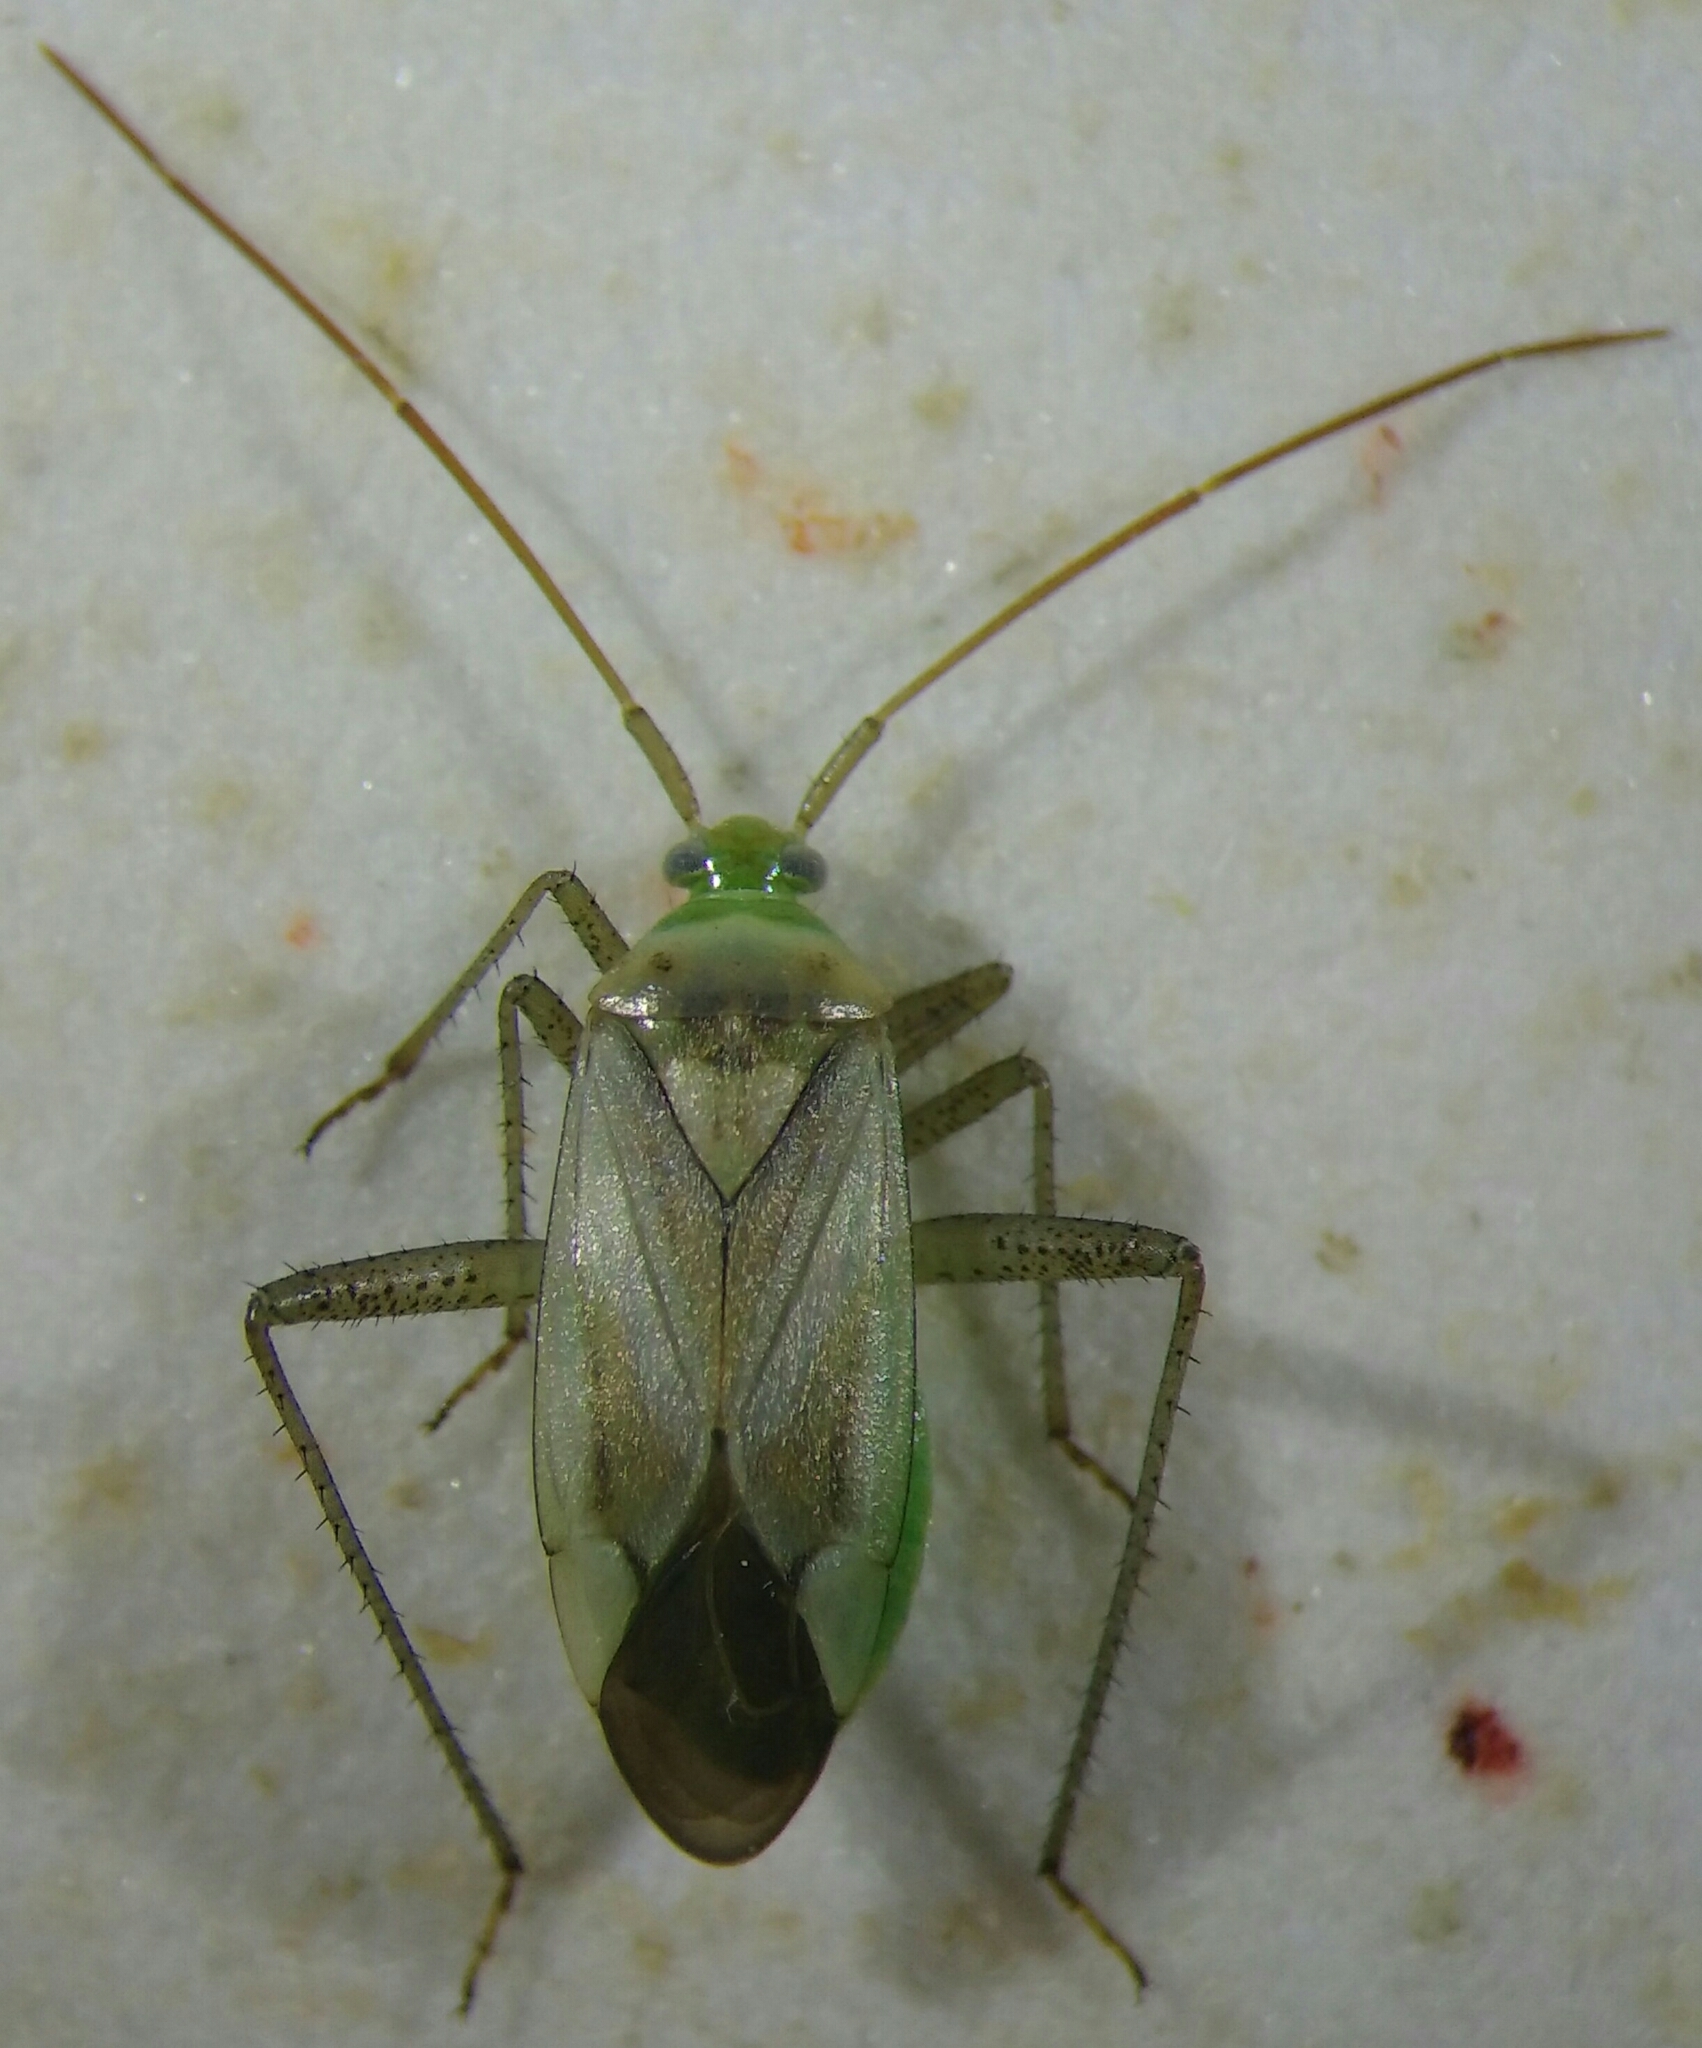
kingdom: Animalia
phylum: Arthropoda
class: Insecta
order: Hemiptera
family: Miridae
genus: Adelphocoris
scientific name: Adelphocoris lineolatus
